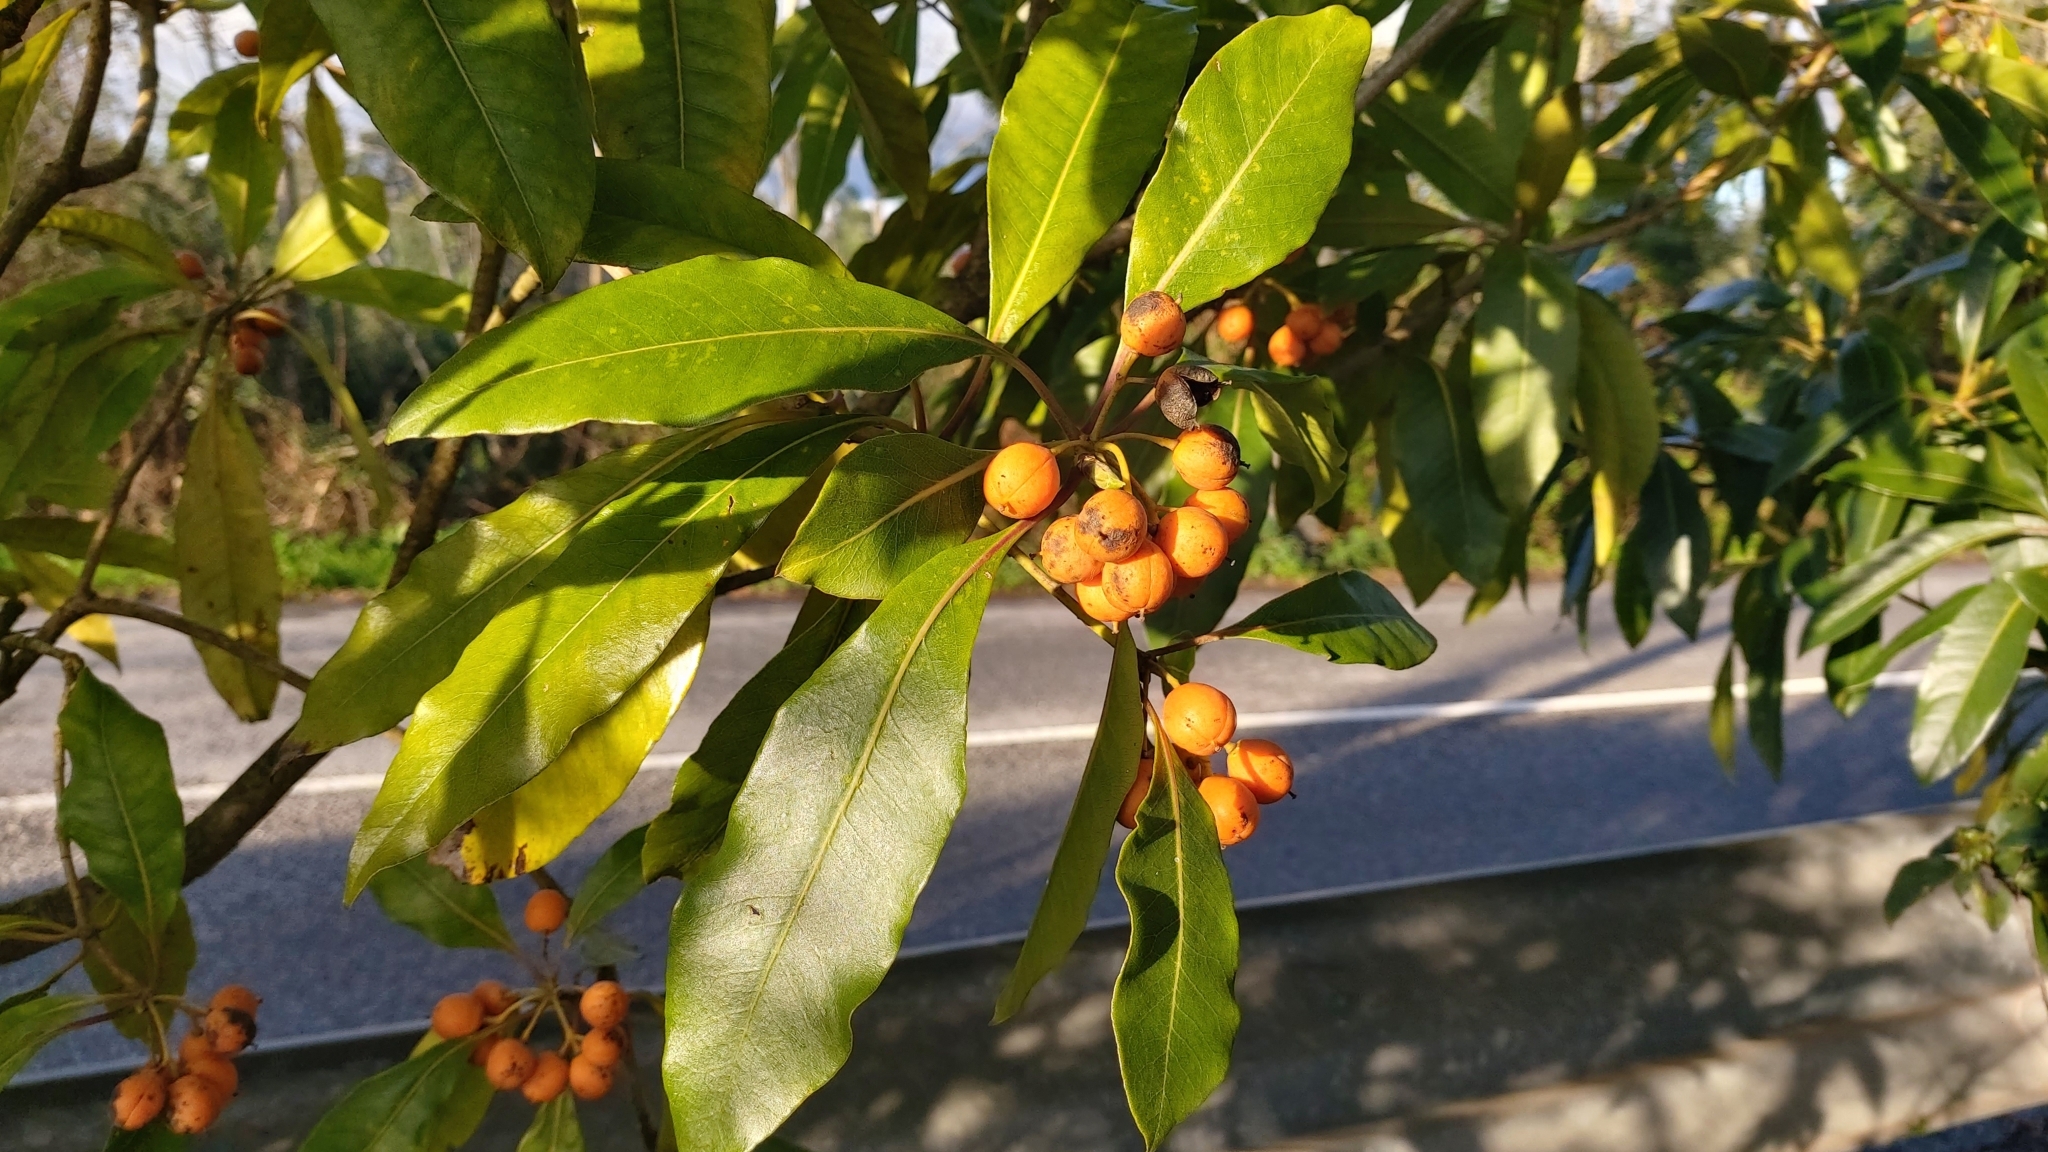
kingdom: Plantae
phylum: Tracheophyta
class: Magnoliopsida
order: Apiales
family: Pittosporaceae
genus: Pittosporum
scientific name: Pittosporum undulatum
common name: Australian cheesewood
